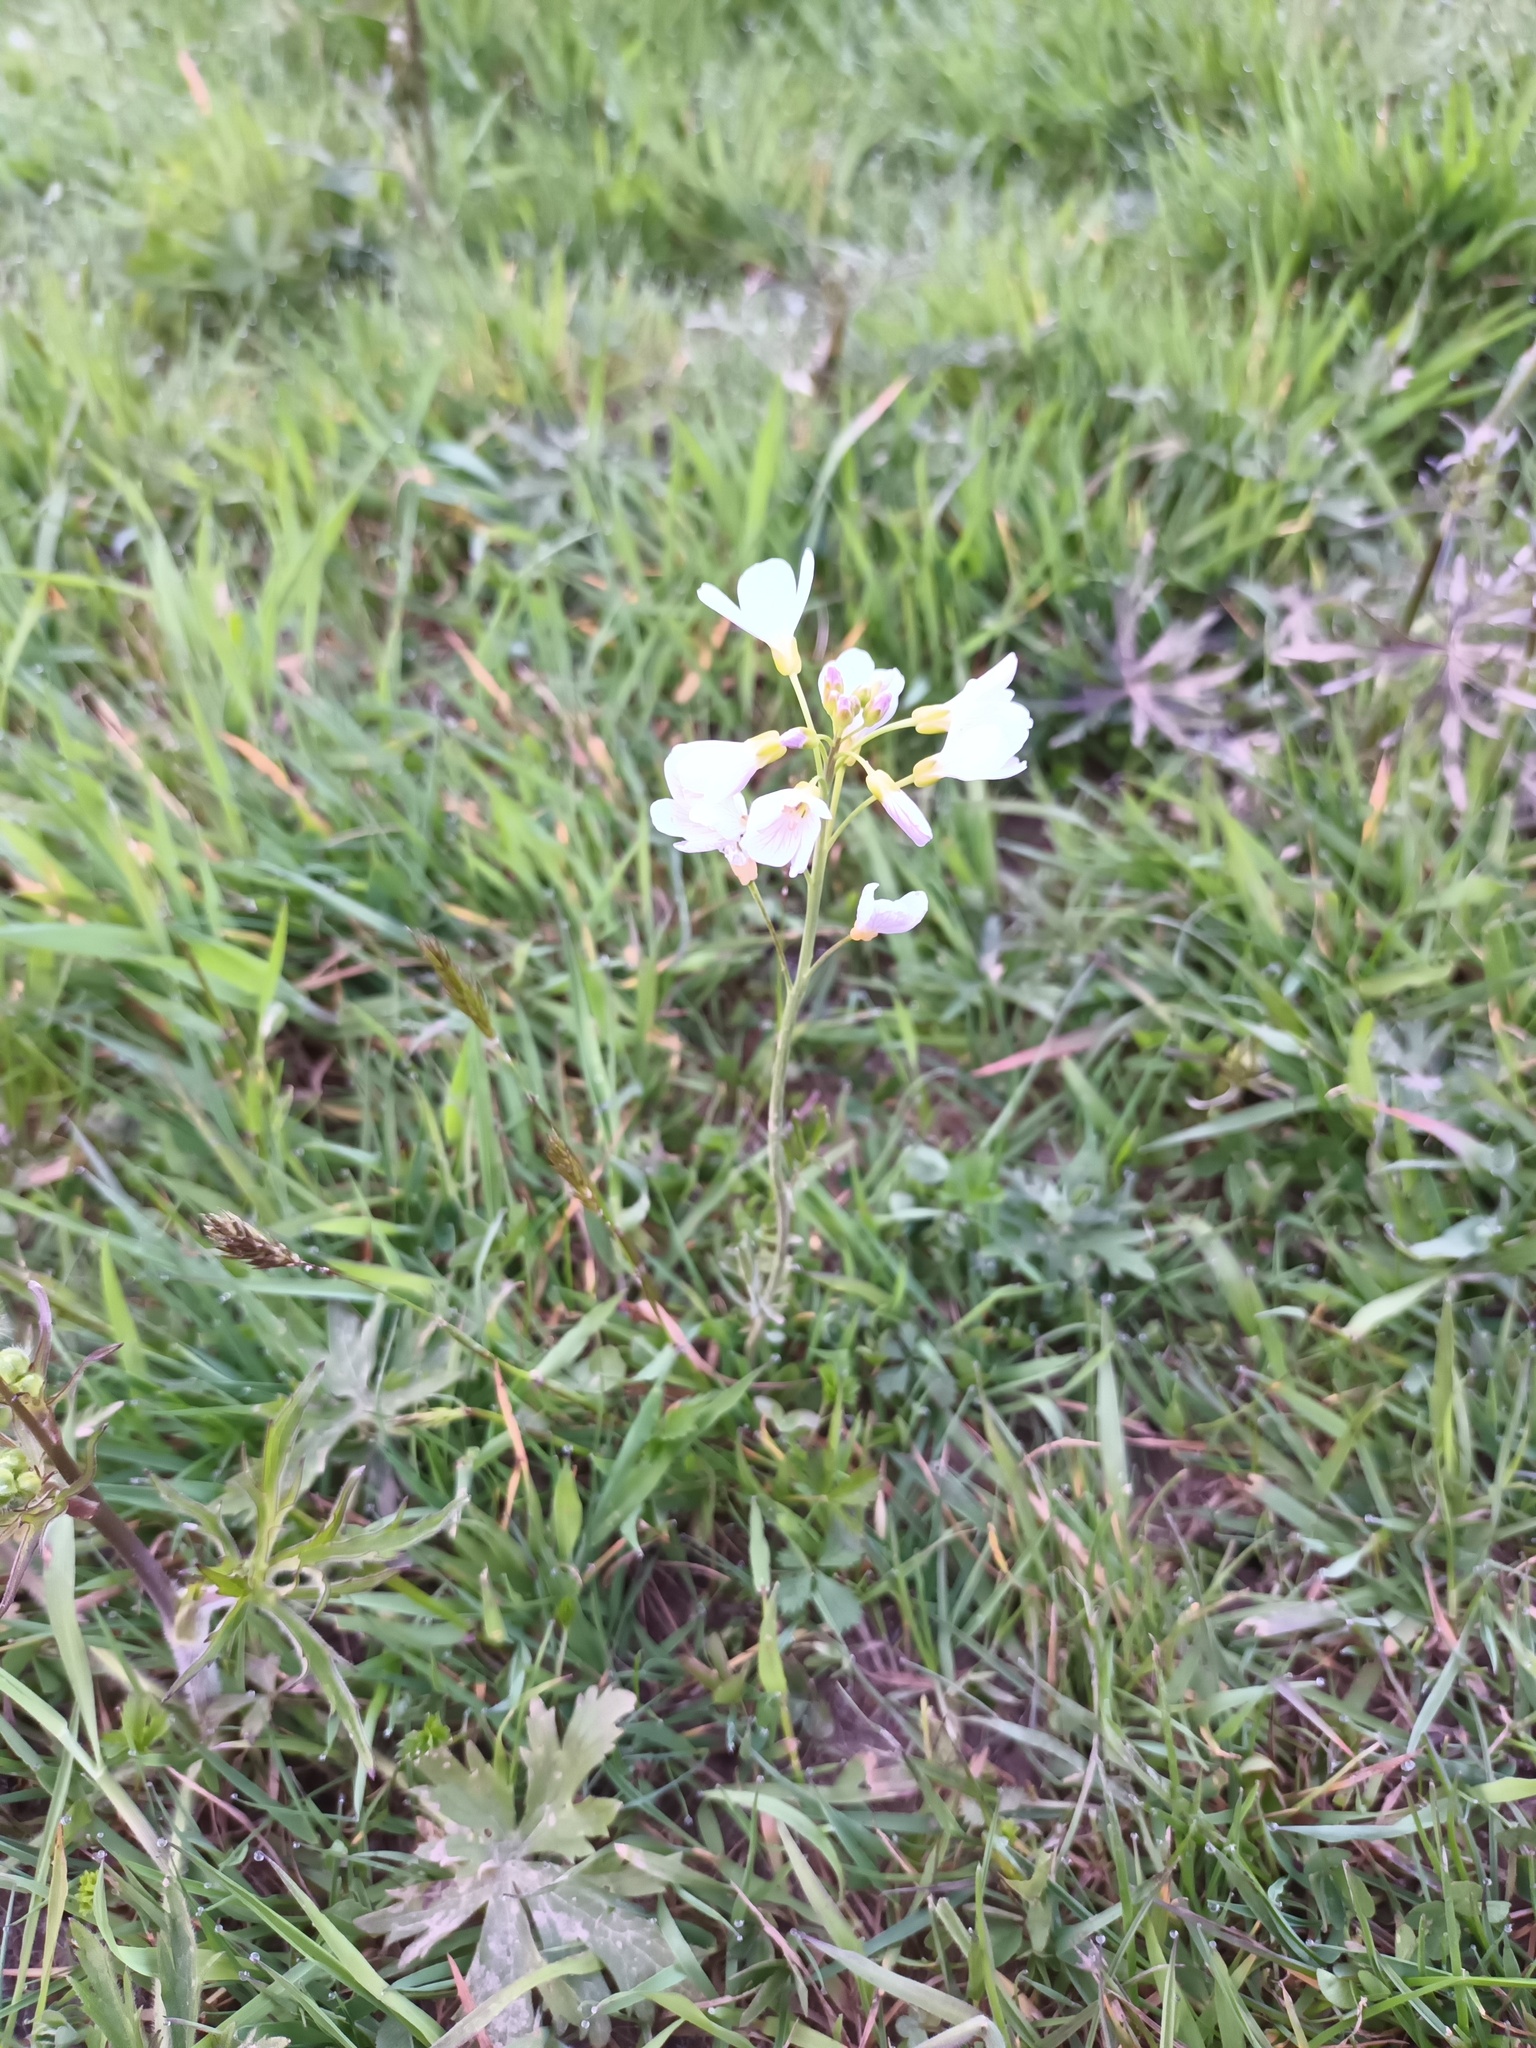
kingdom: Plantae
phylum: Tracheophyta
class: Magnoliopsida
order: Brassicales
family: Brassicaceae
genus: Cardamine
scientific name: Cardamine pratensis
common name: Cuckoo flower
